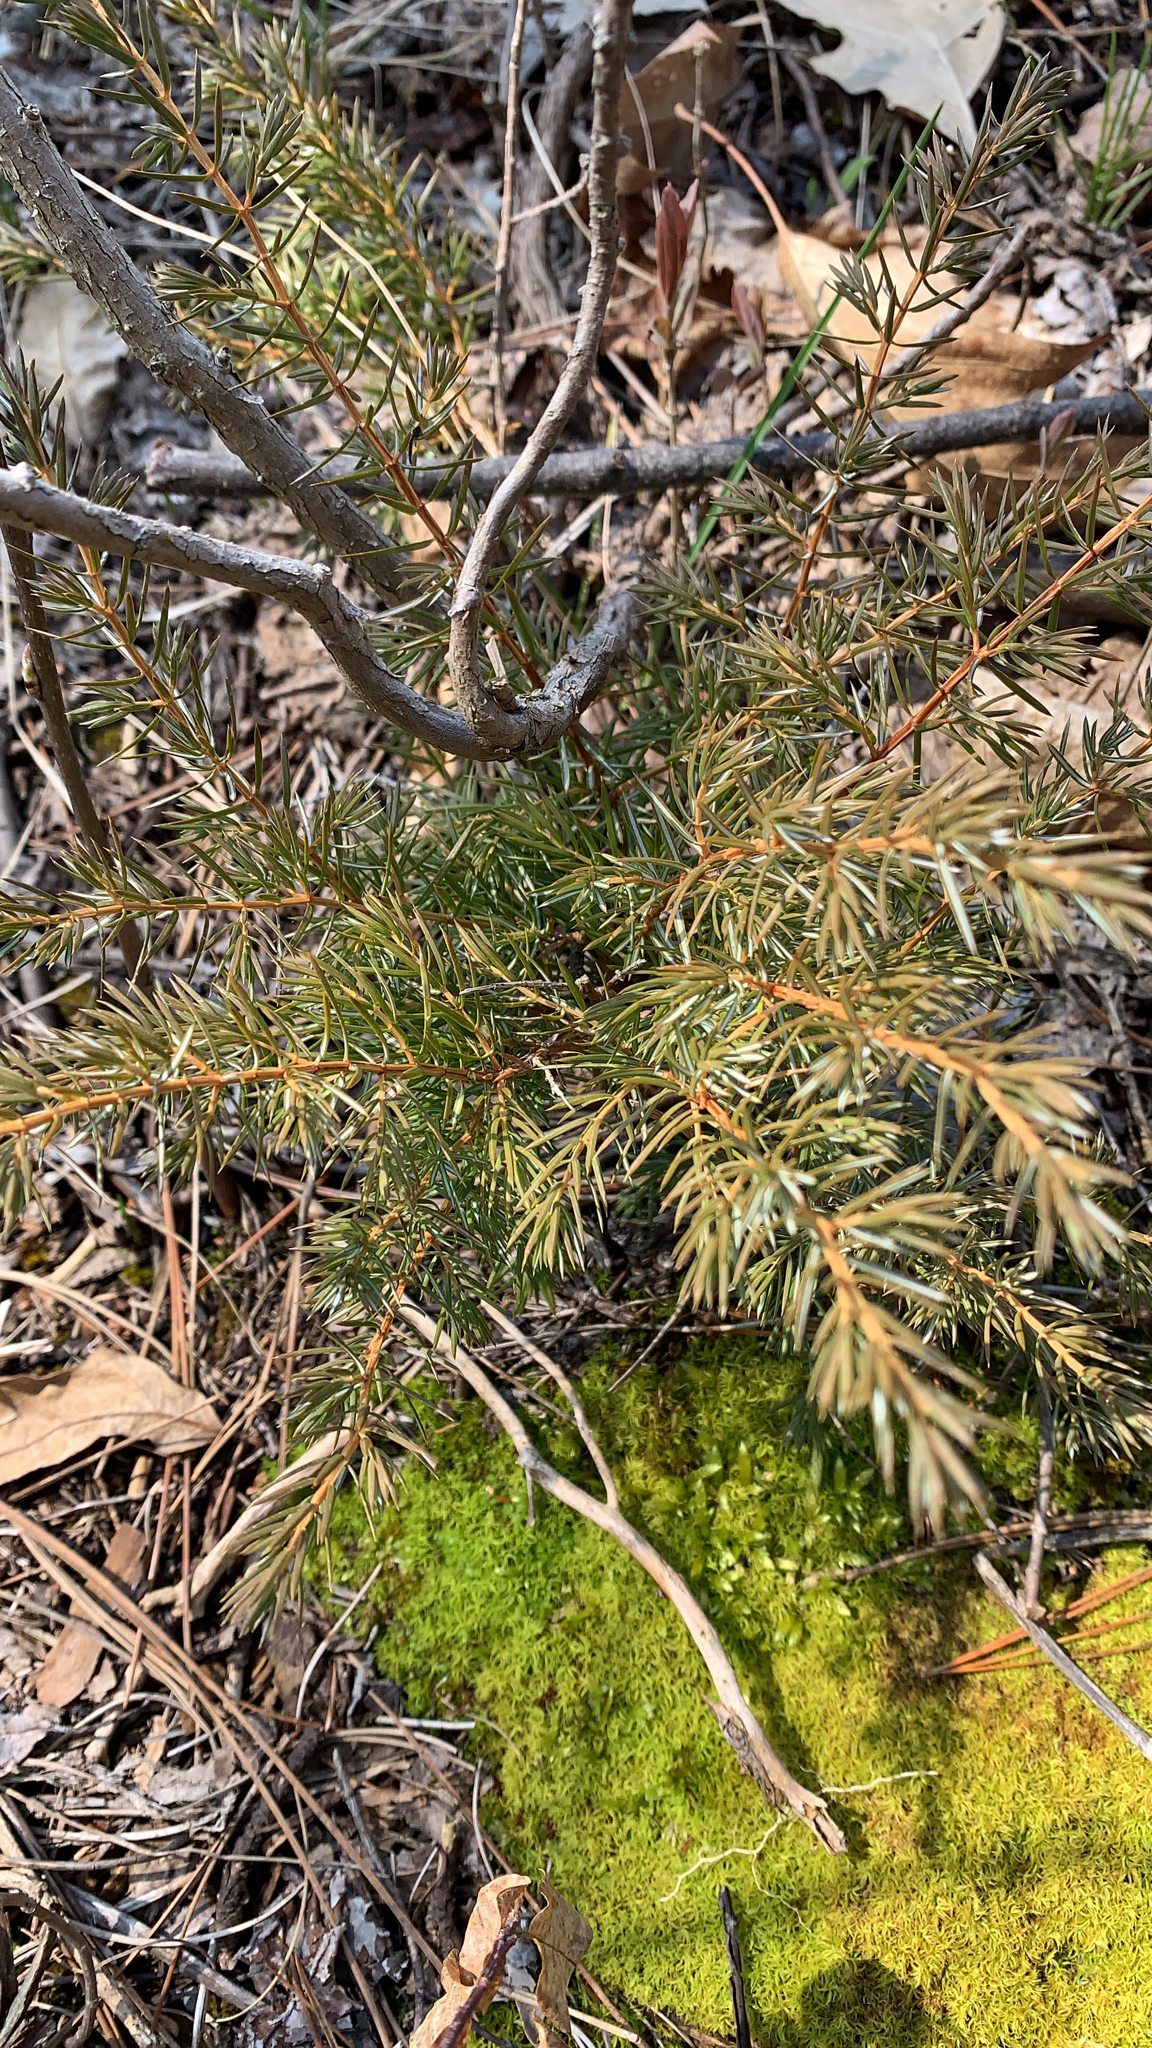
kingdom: Plantae
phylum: Tracheophyta
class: Pinopsida
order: Pinales
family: Cupressaceae
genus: Juniperus
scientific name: Juniperus communis
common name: Common juniper
